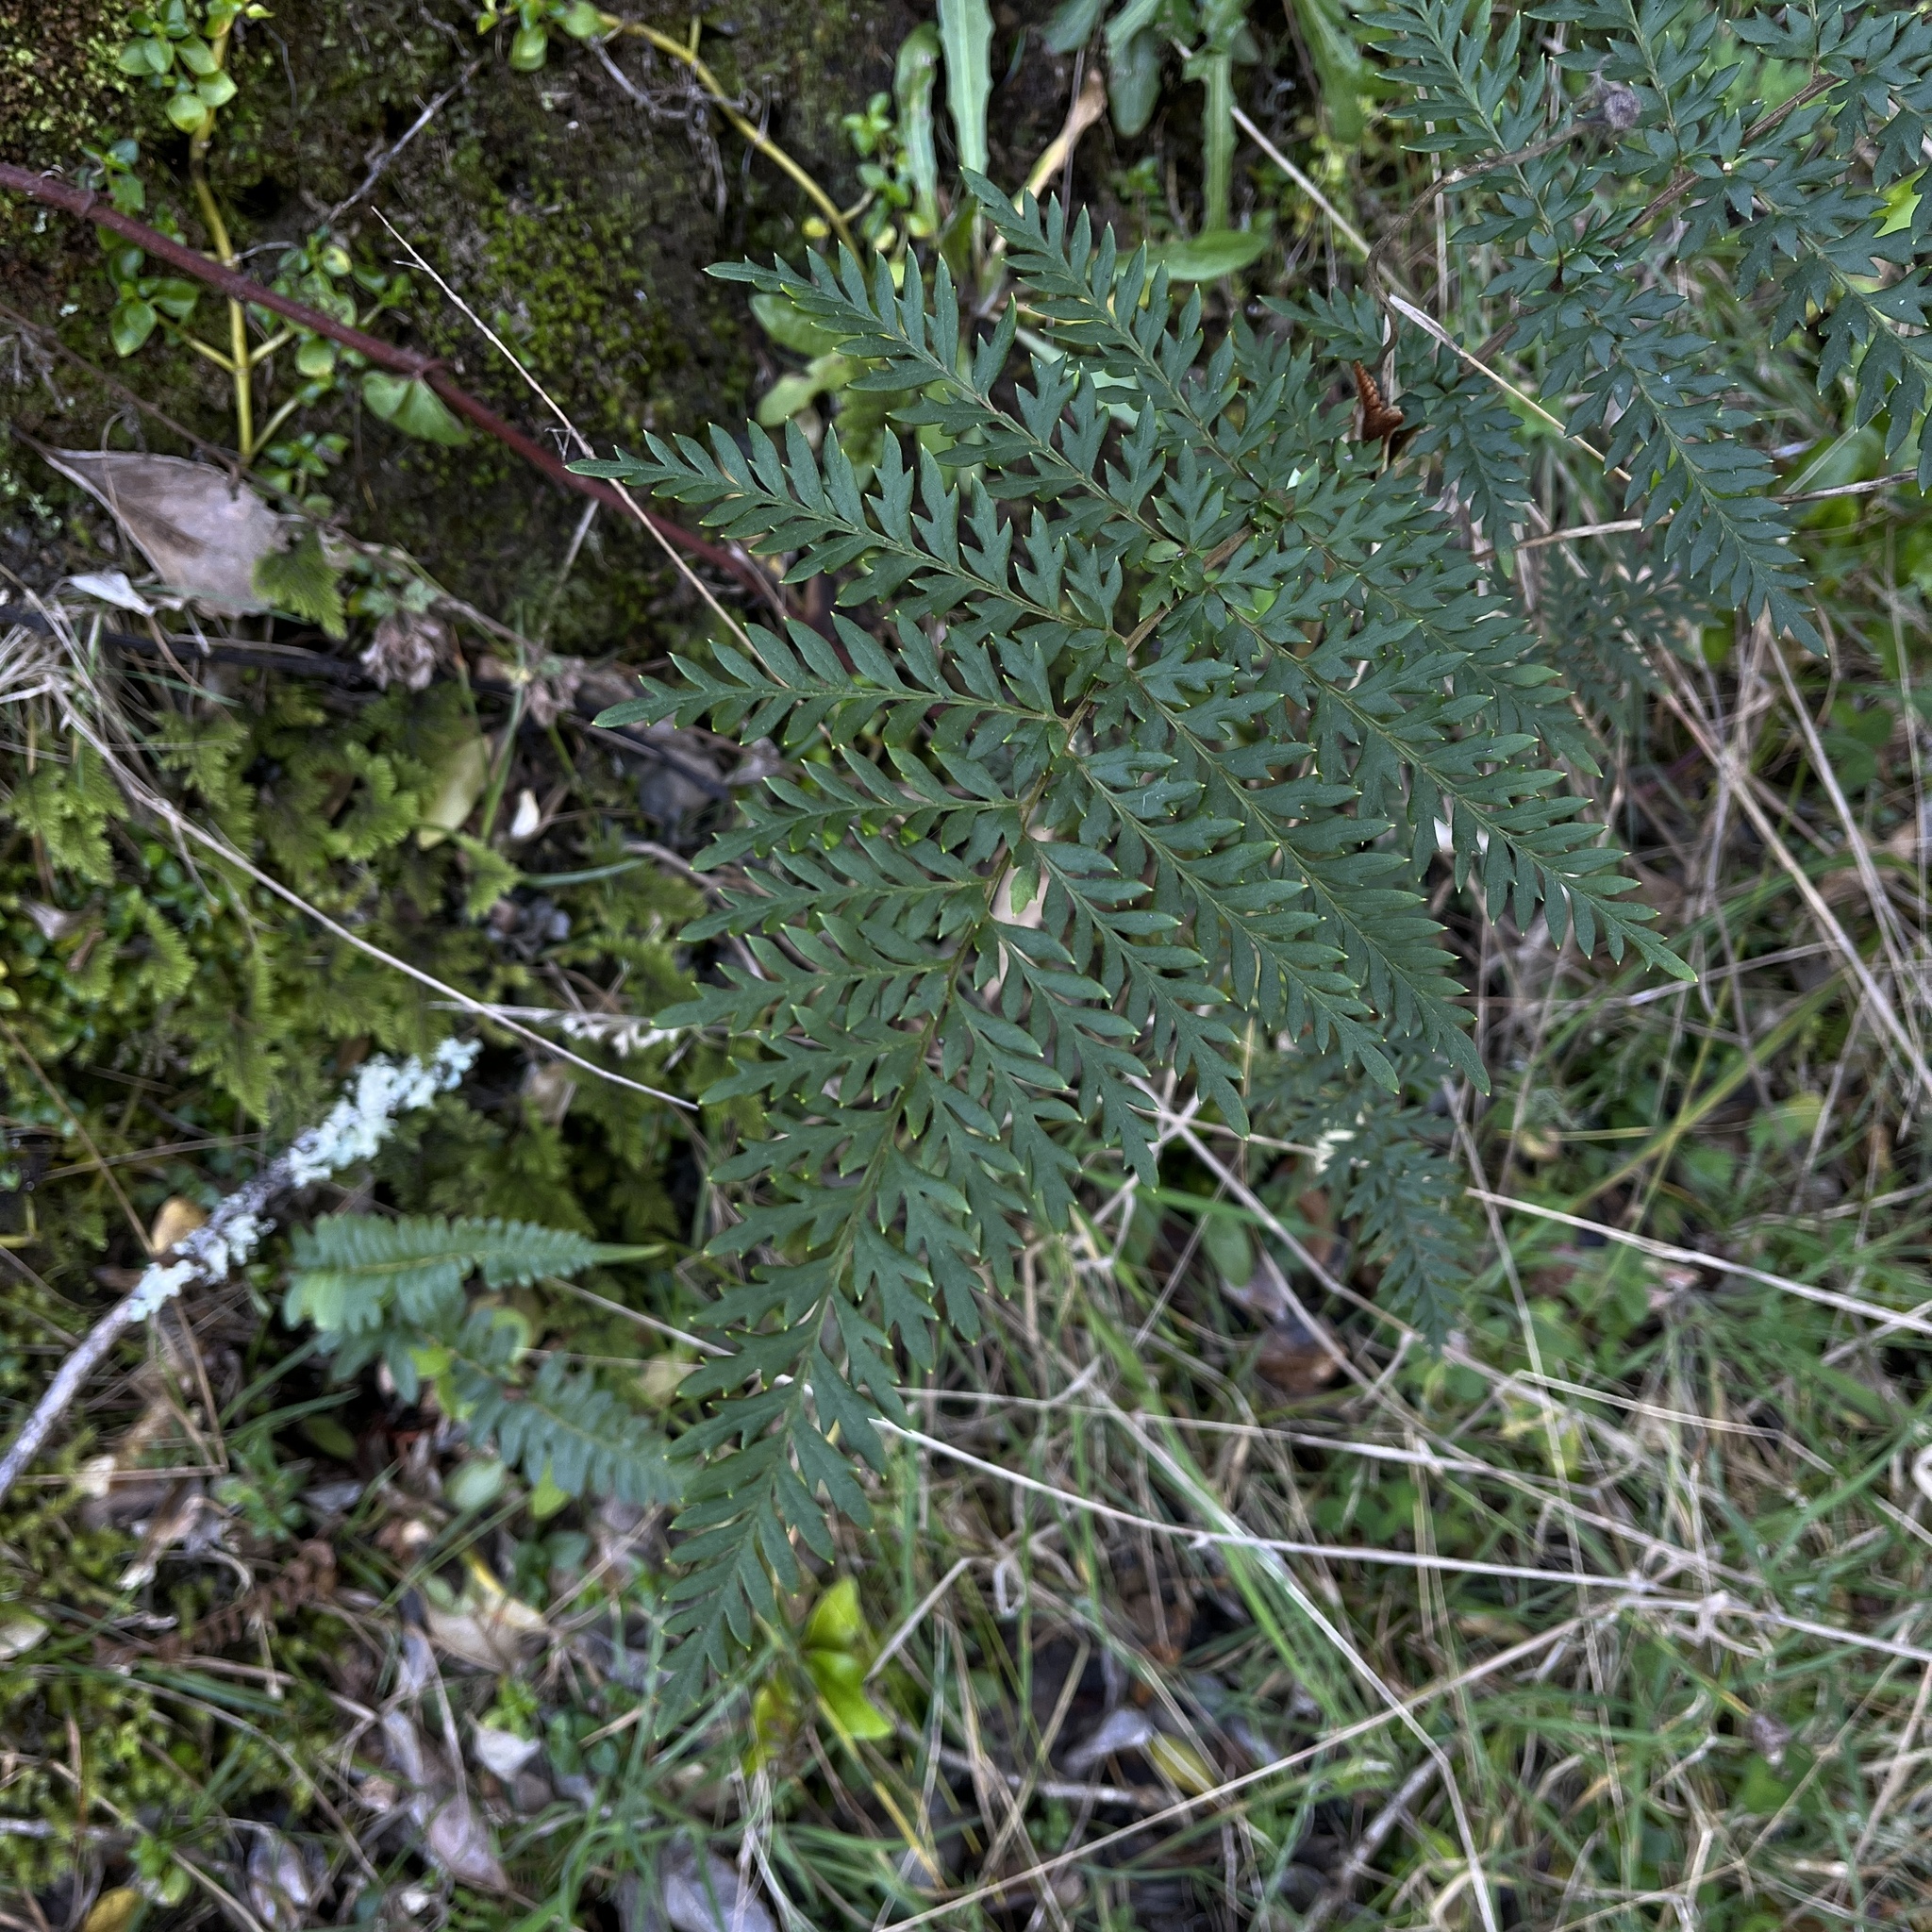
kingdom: Plantae
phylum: Tracheophyta
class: Magnoliopsida
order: Proteales
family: Proteaceae
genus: Lomatia
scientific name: Lomatia ferruginea
